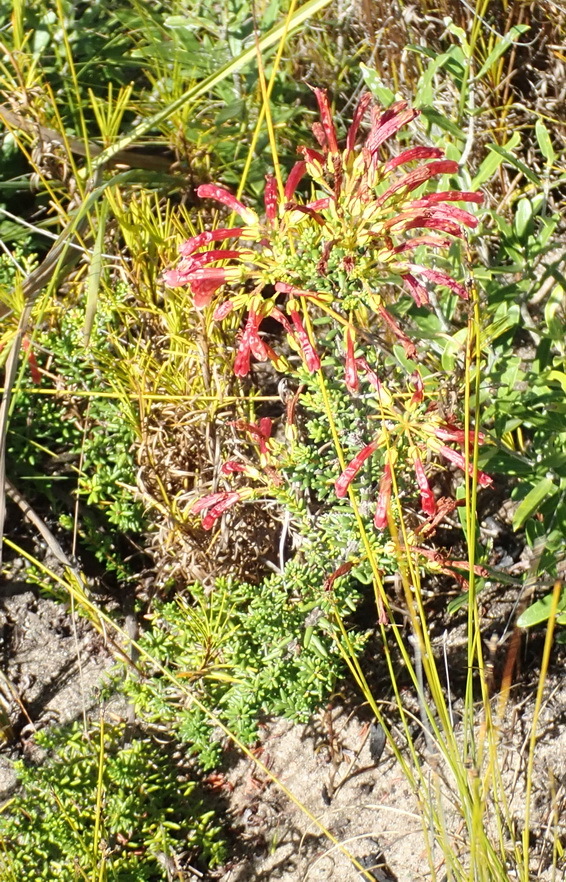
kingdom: Plantae
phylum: Tracheophyta
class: Magnoliopsida
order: Ericales
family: Ericaceae
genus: Erica
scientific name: Erica glandulosa
